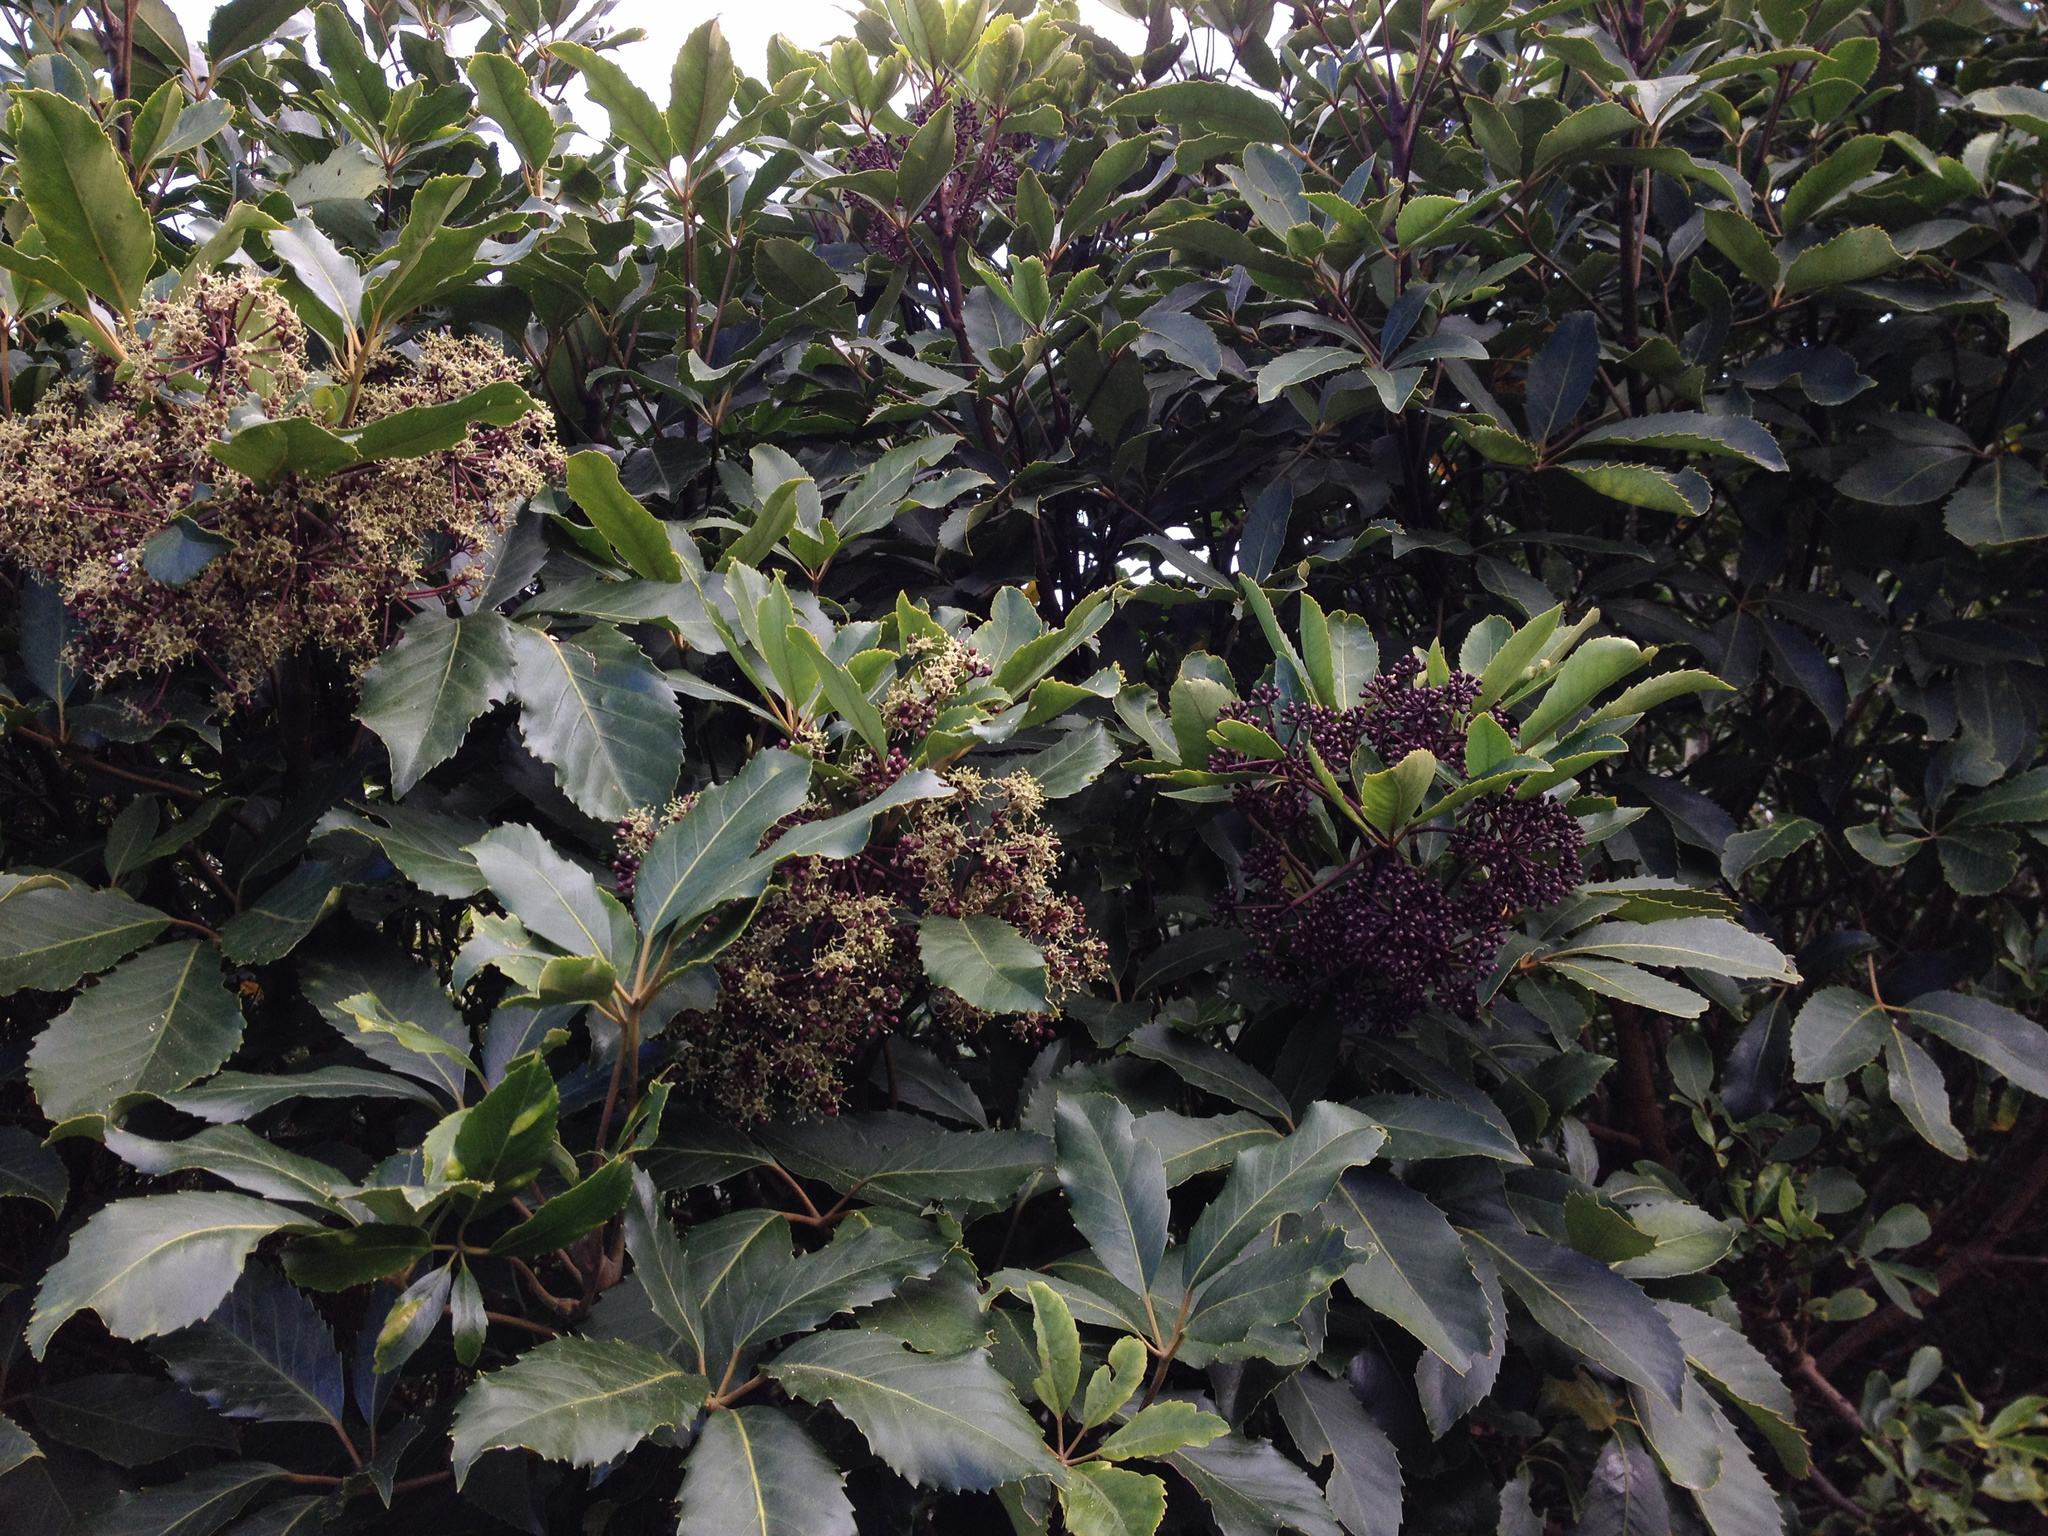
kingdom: Plantae
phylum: Tracheophyta
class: Magnoliopsida
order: Apiales
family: Araliaceae
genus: Neopanax
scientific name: Neopanax arboreus
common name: Five-fingers
